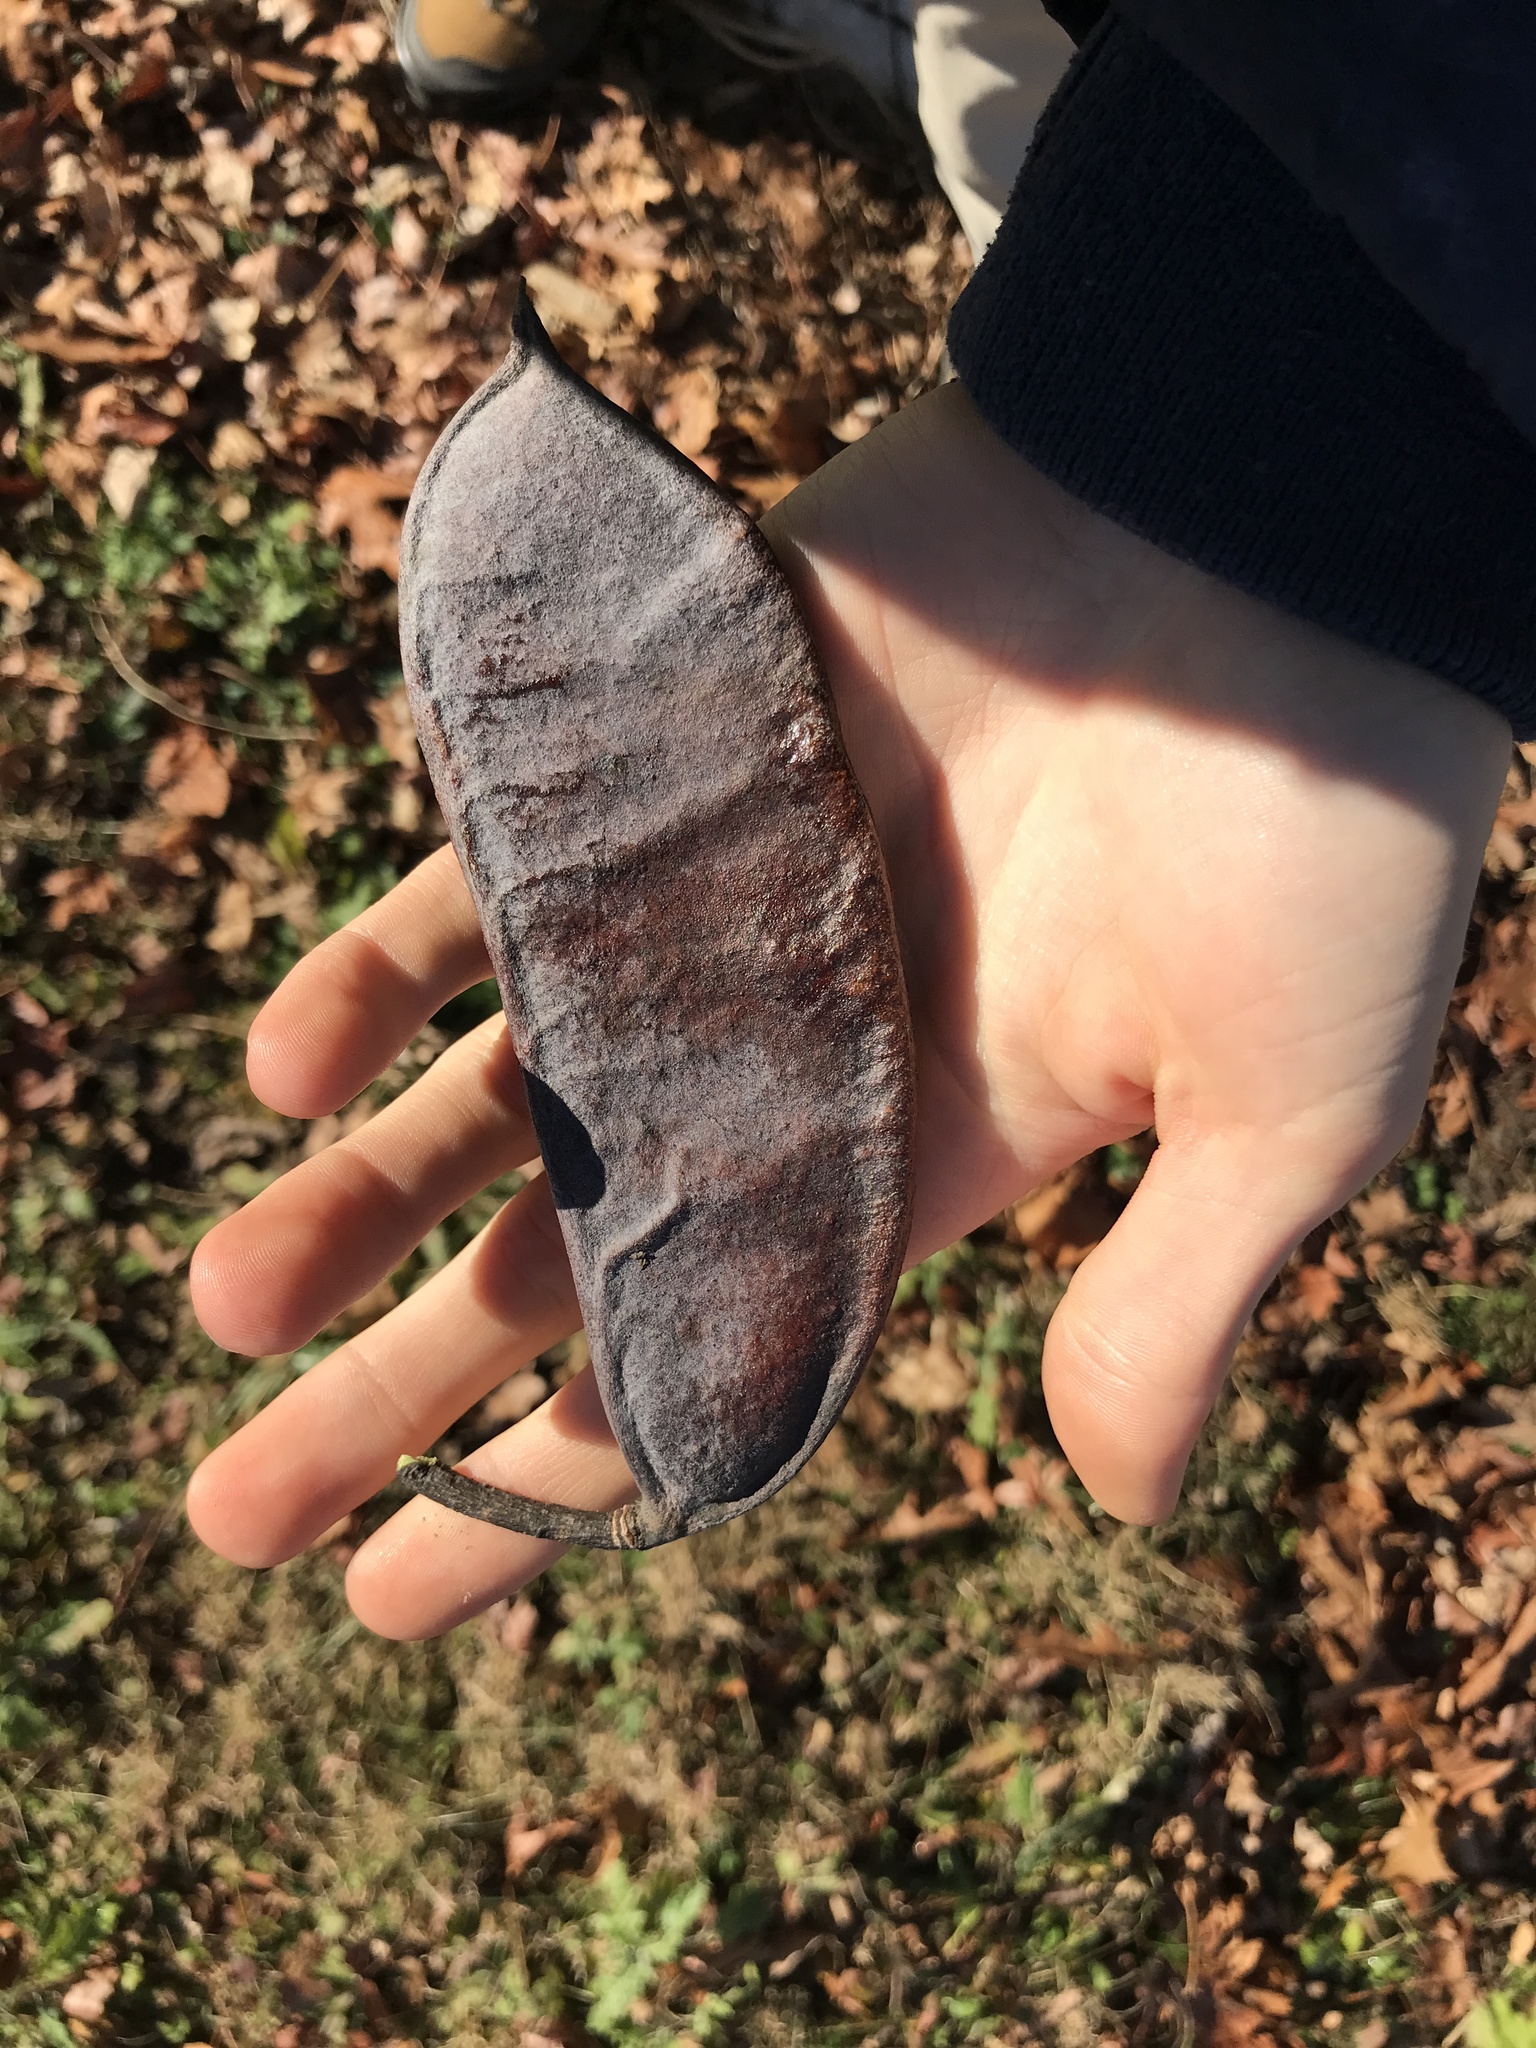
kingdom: Plantae
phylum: Tracheophyta
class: Magnoliopsida
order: Fabales
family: Fabaceae
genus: Gymnocladus
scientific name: Gymnocladus dioicus
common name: Kentucky coffee-tree
